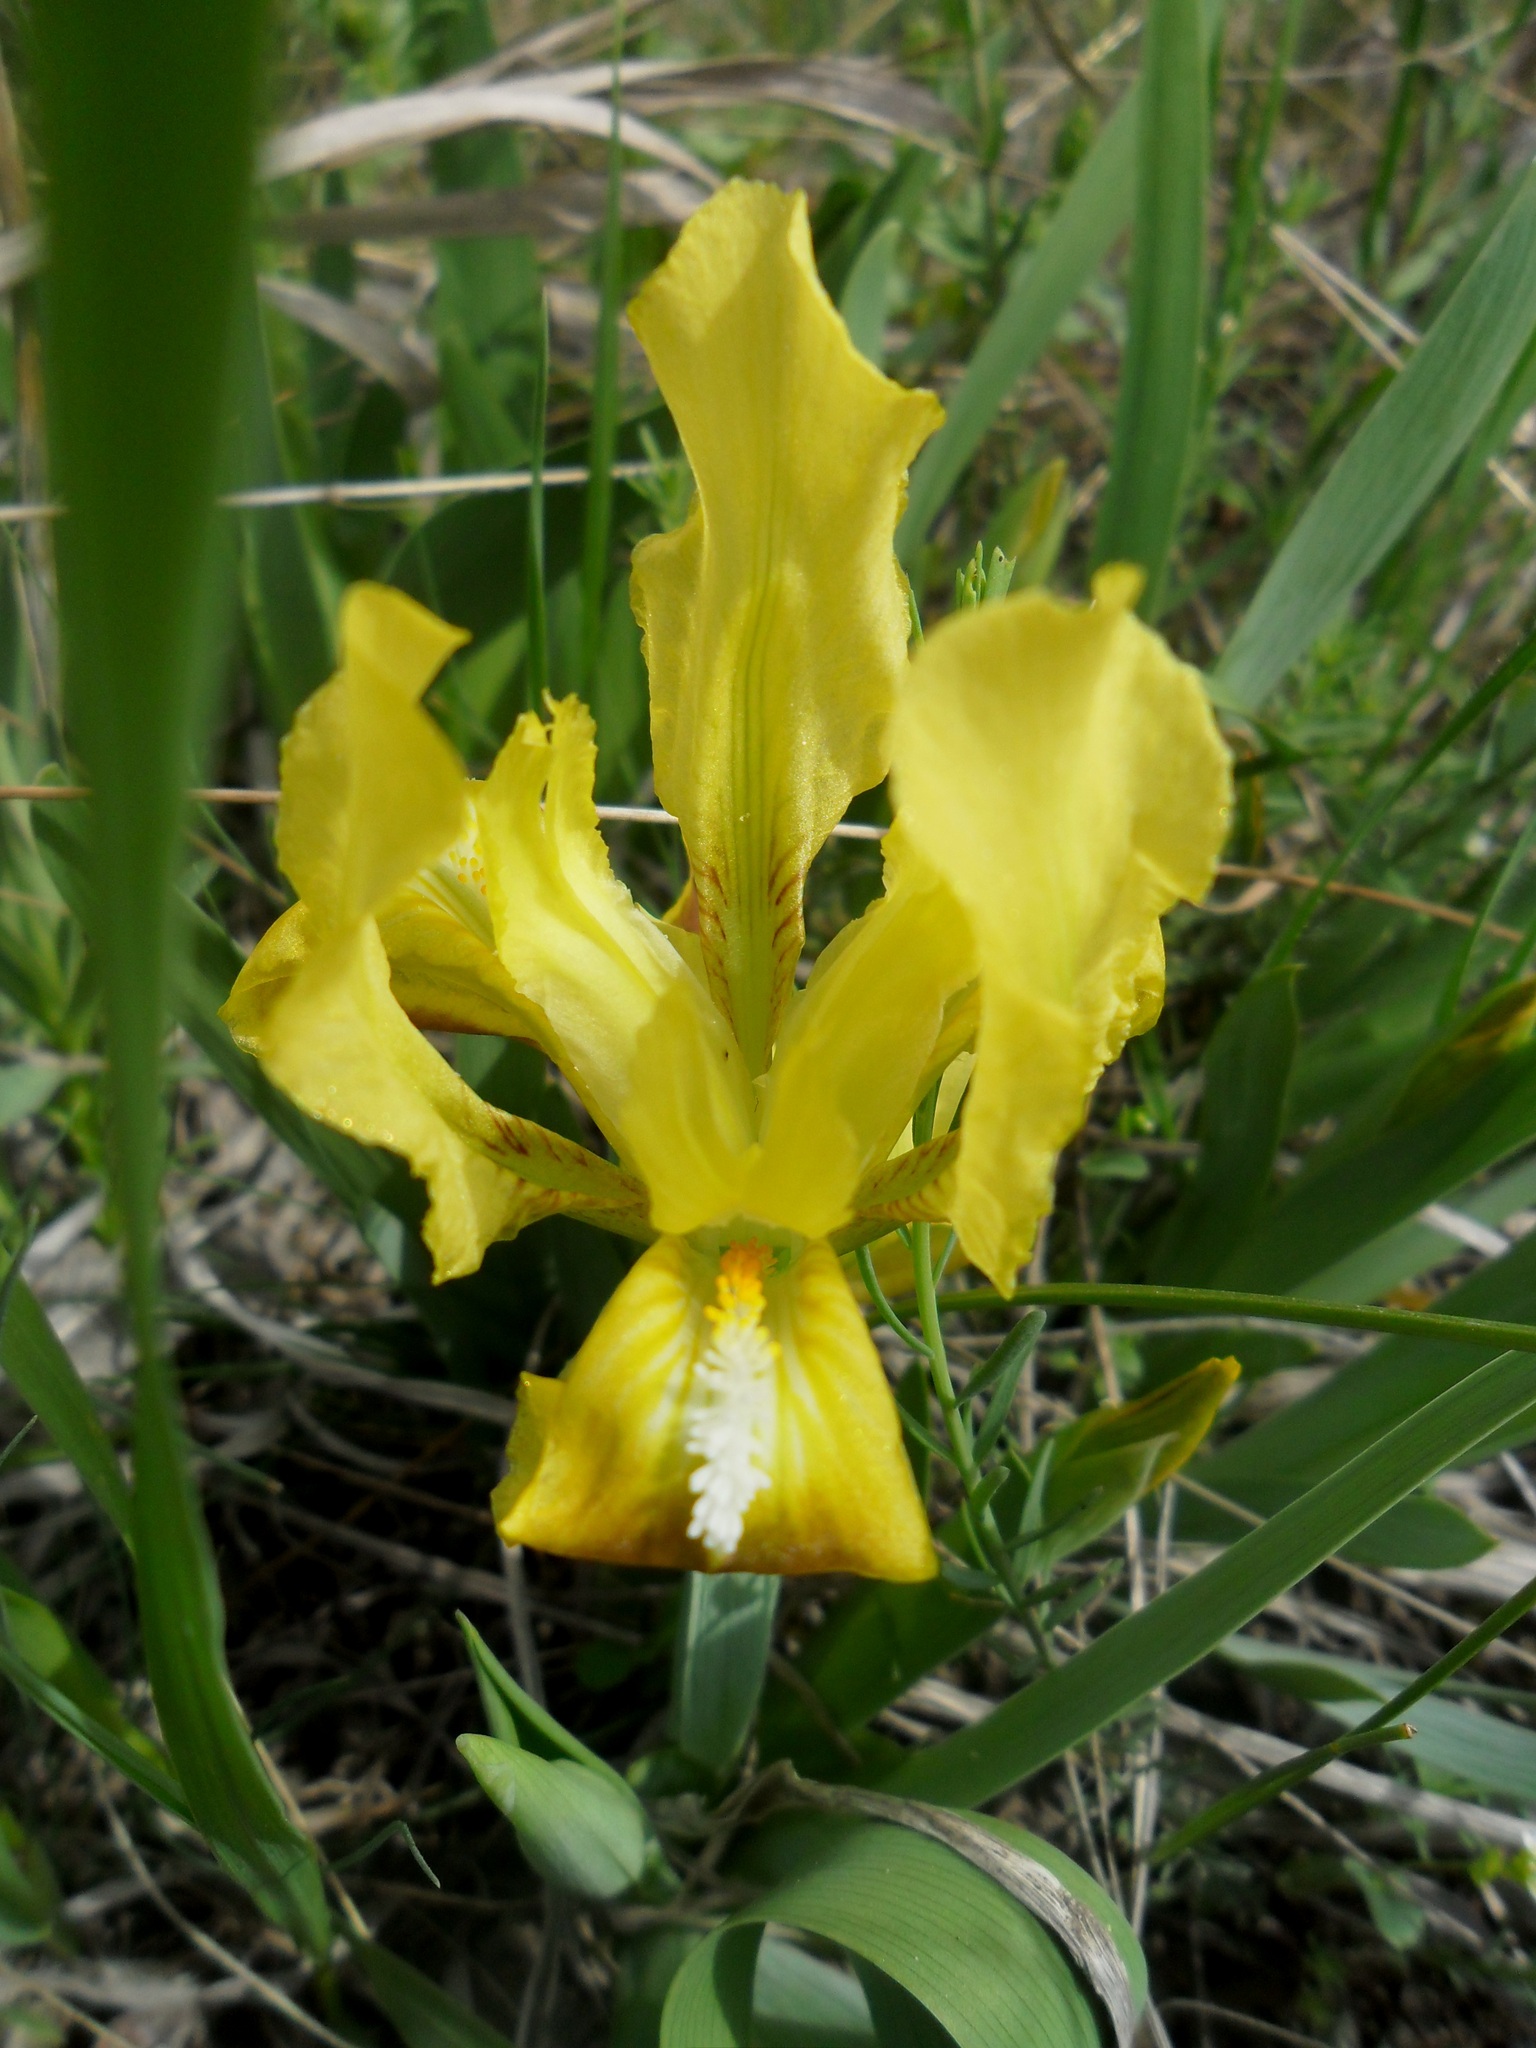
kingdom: Plantae
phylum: Tracheophyta
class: Liliopsida
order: Asparagales
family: Iridaceae
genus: Iris
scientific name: Iris pumila
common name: Dwarf iris
